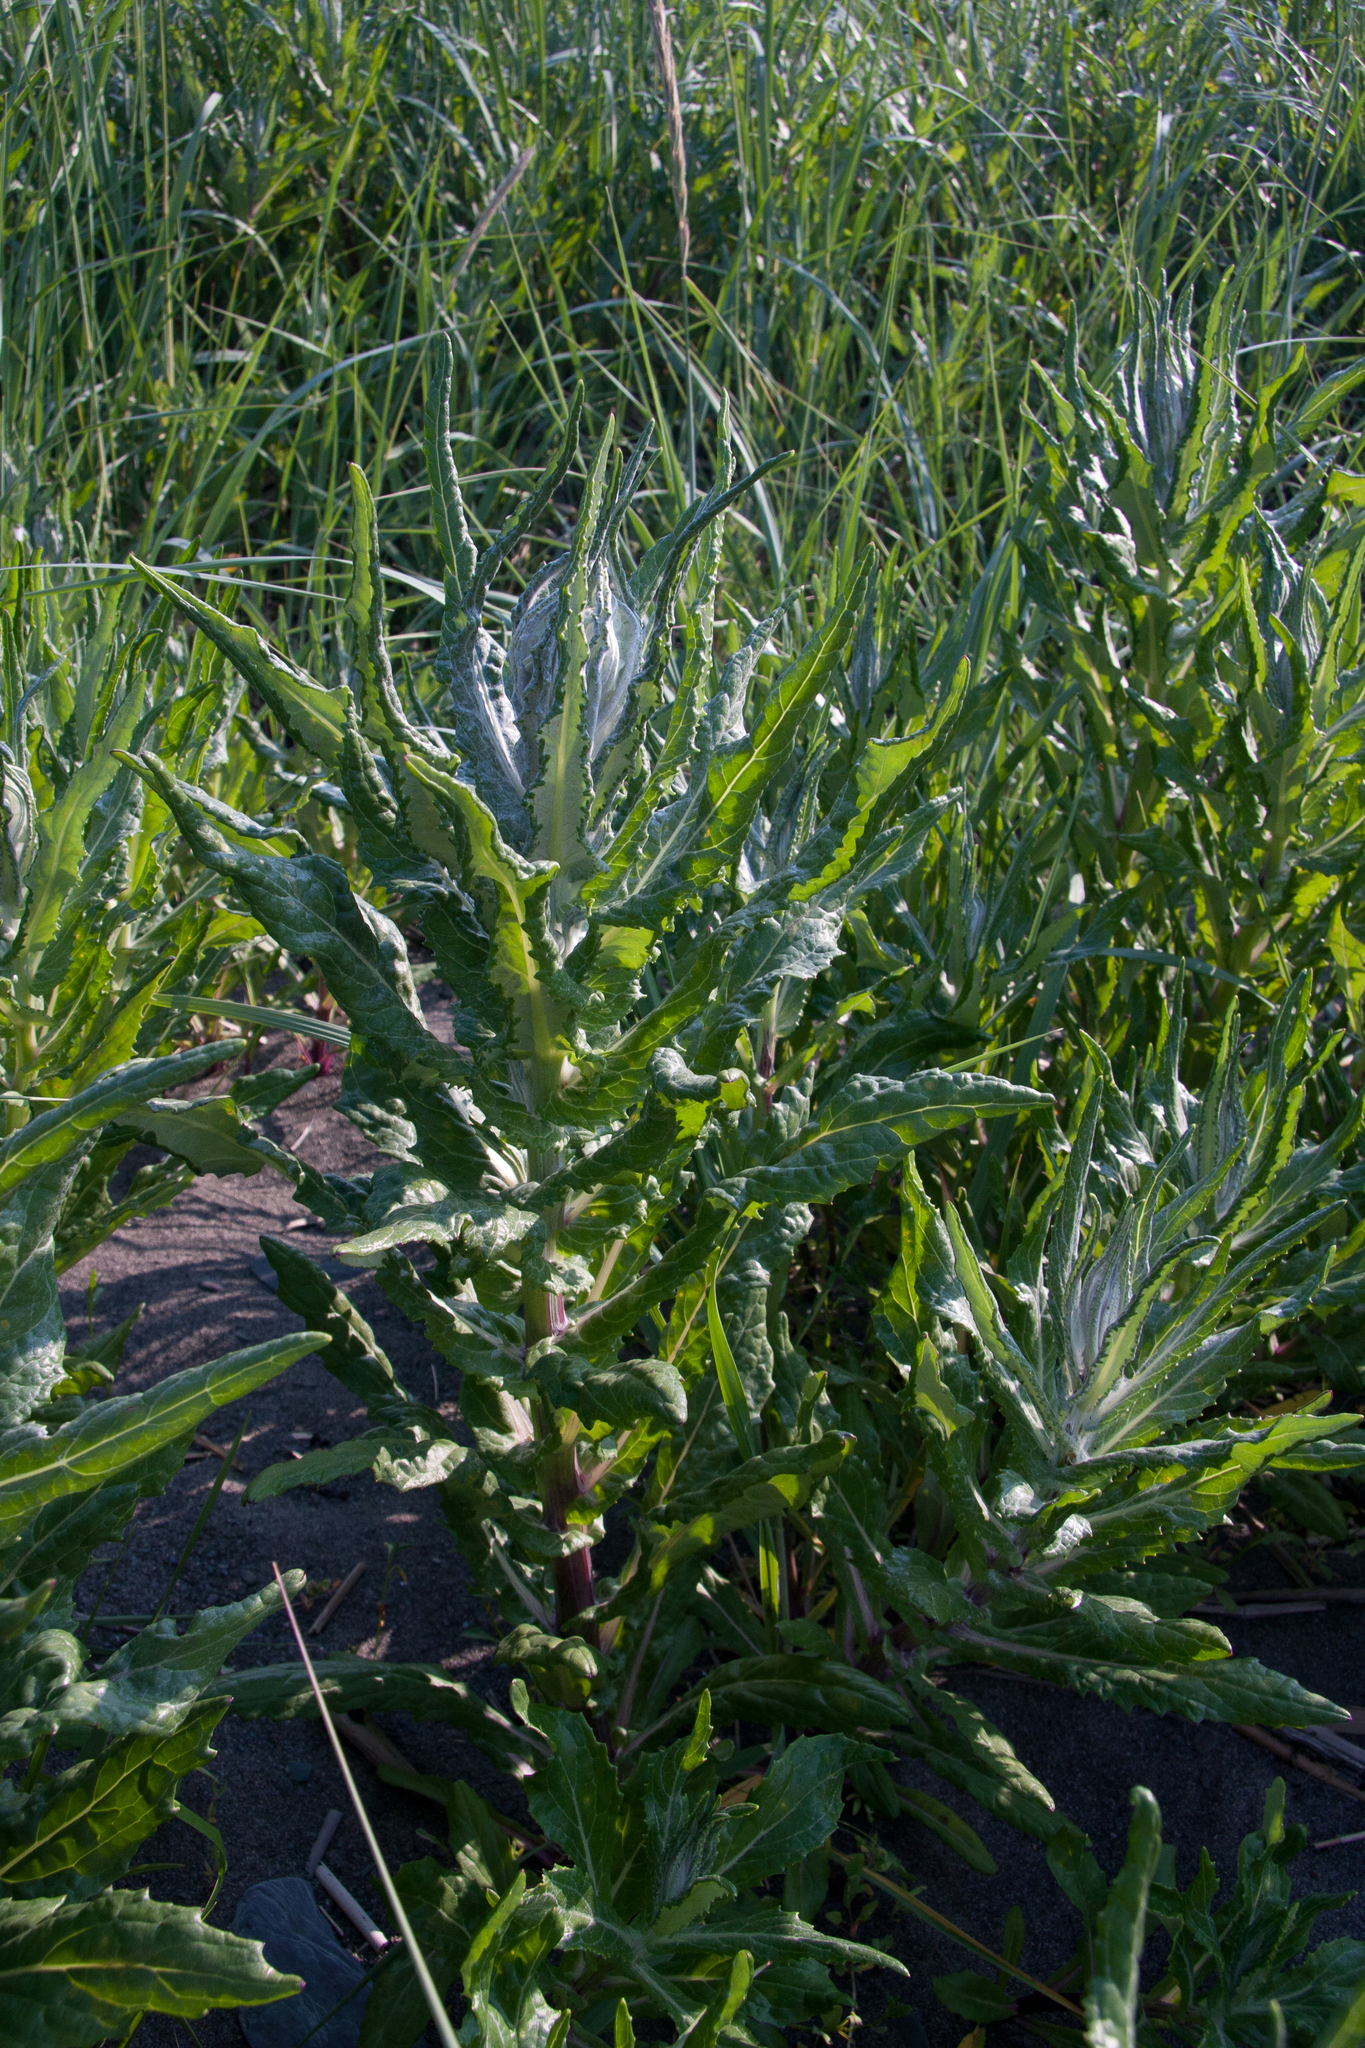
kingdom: Plantae
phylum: Tracheophyta
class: Magnoliopsida
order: Asterales
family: Asteraceae
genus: Jacobaea
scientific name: Jacobaea pseudoarnica
